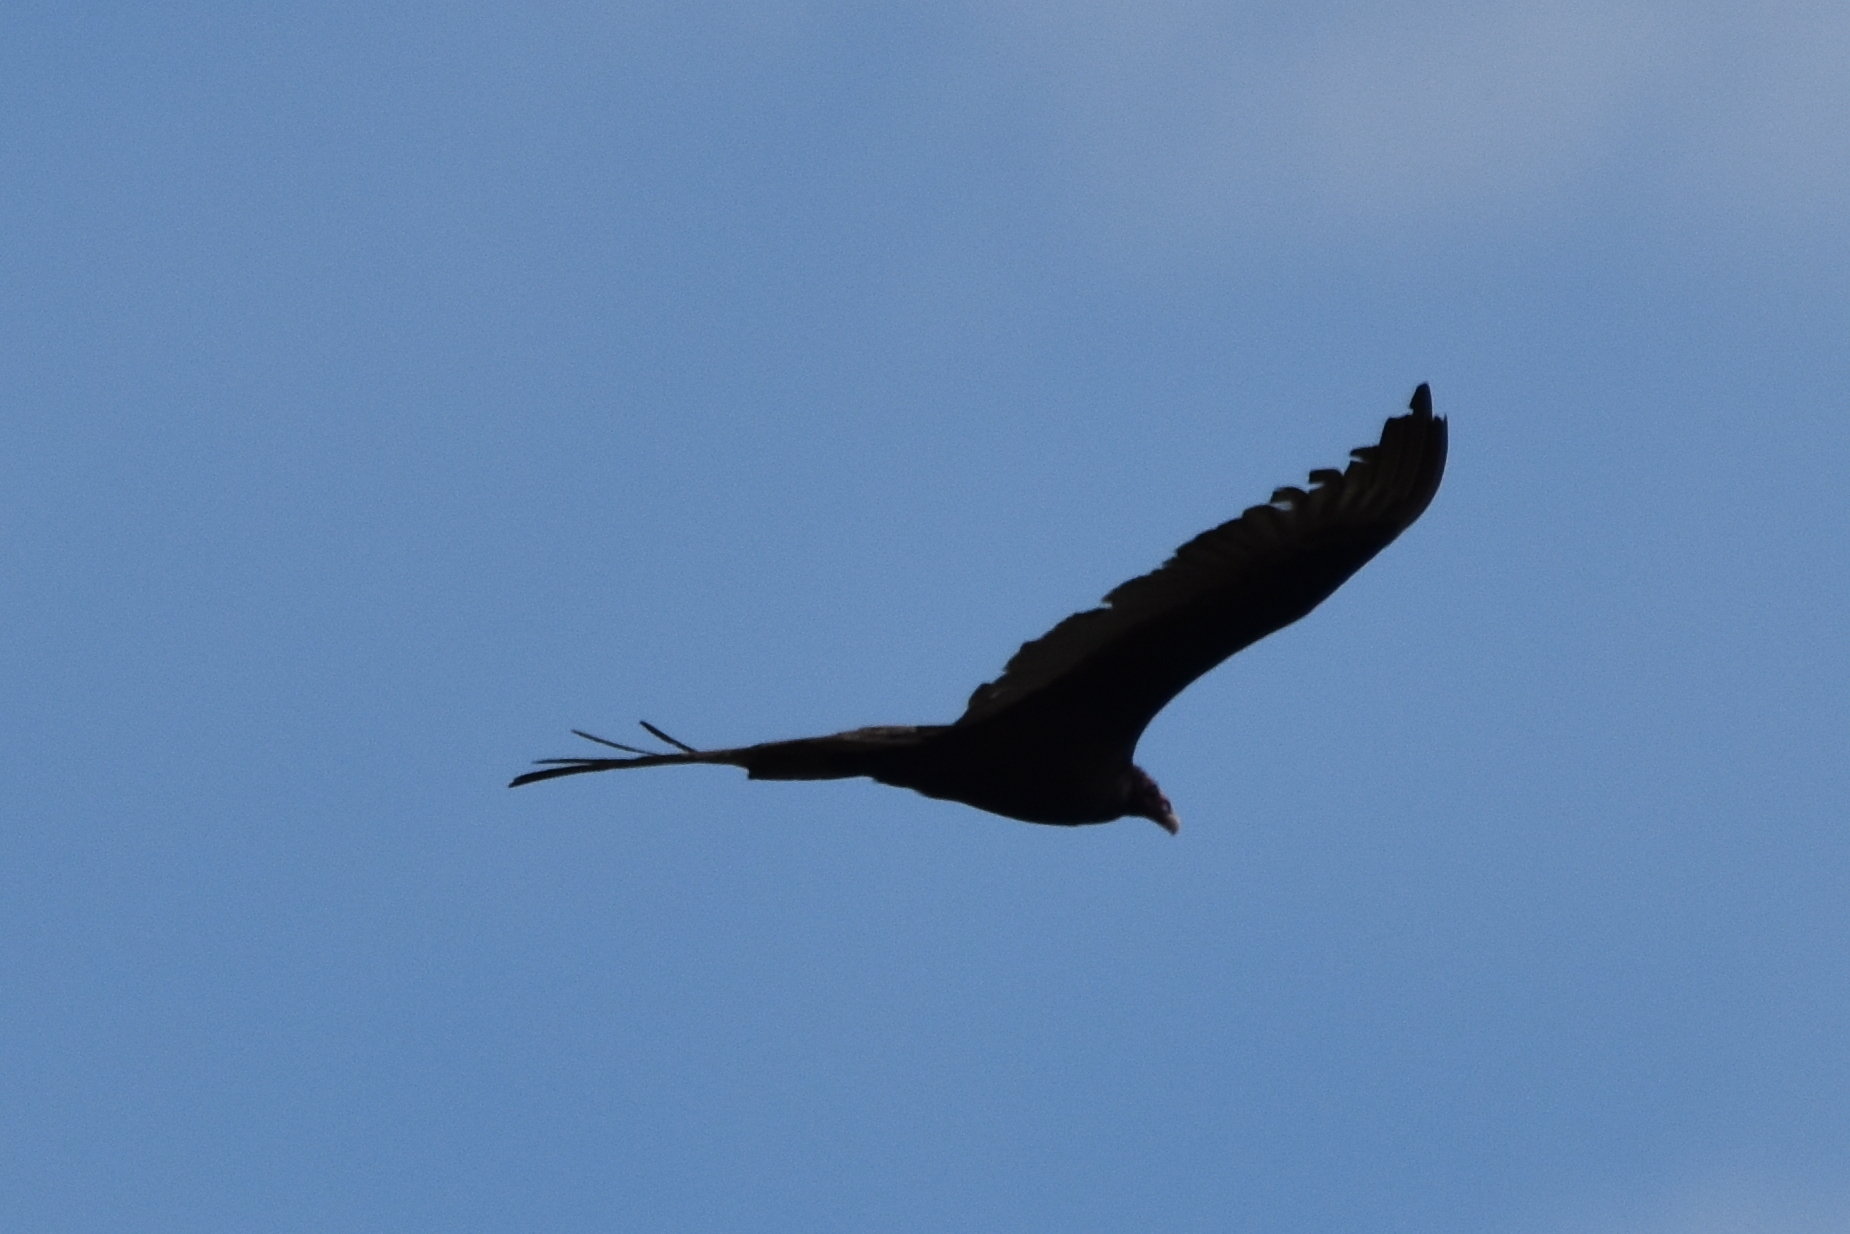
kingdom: Animalia
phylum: Chordata
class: Aves
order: Accipitriformes
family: Cathartidae
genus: Cathartes
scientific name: Cathartes aura
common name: Turkey vulture
